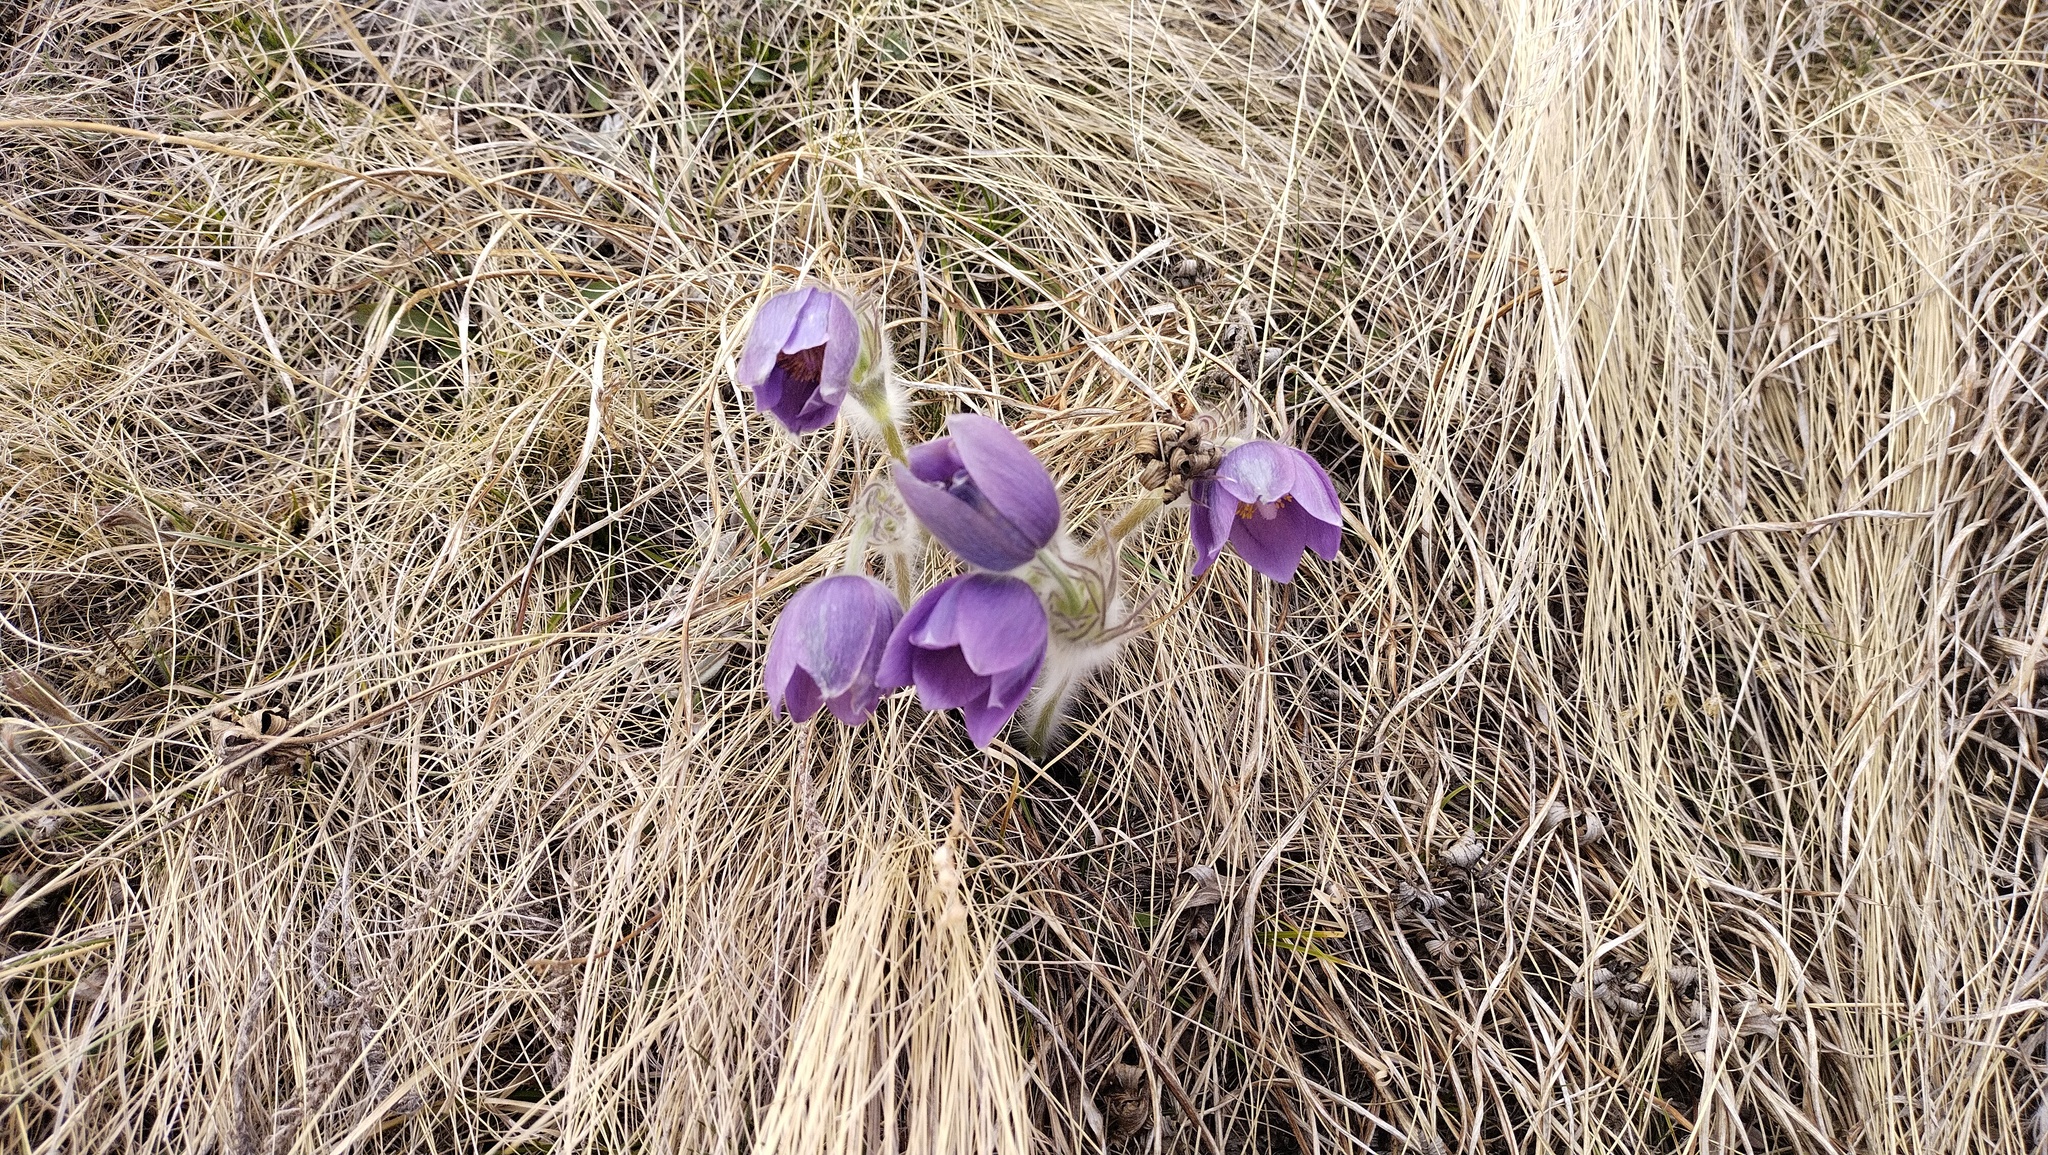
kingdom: Plantae
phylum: Tracheophyta
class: Magnoliopsida
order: Ranunculales
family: Ranunculaceae
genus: Pulsatilla
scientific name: Pulsatilla patens
